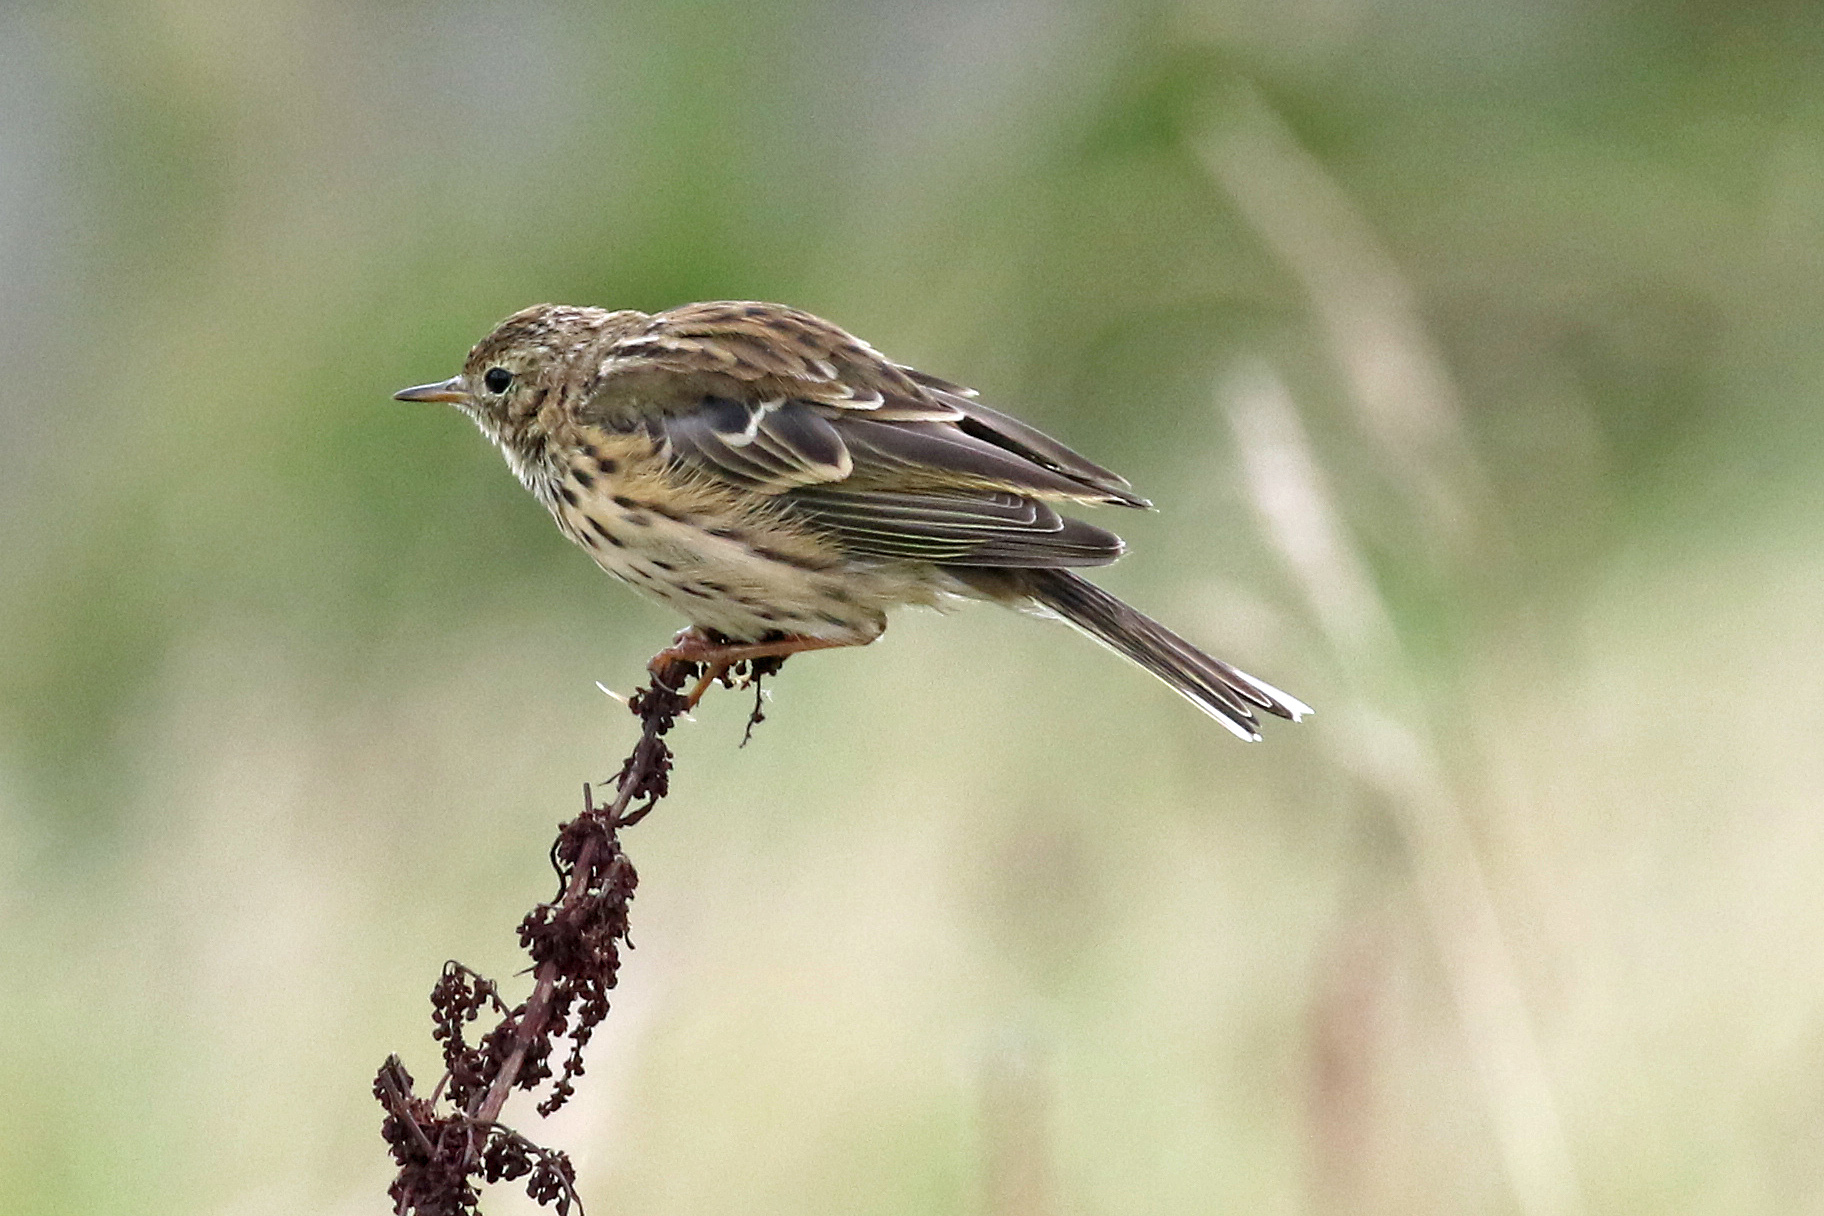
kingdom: Animalia
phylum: Chordata
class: Aves
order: Passeriformes
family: Motacillidae
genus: Anthus
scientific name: Anthus pratensis
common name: Meadow pipit
